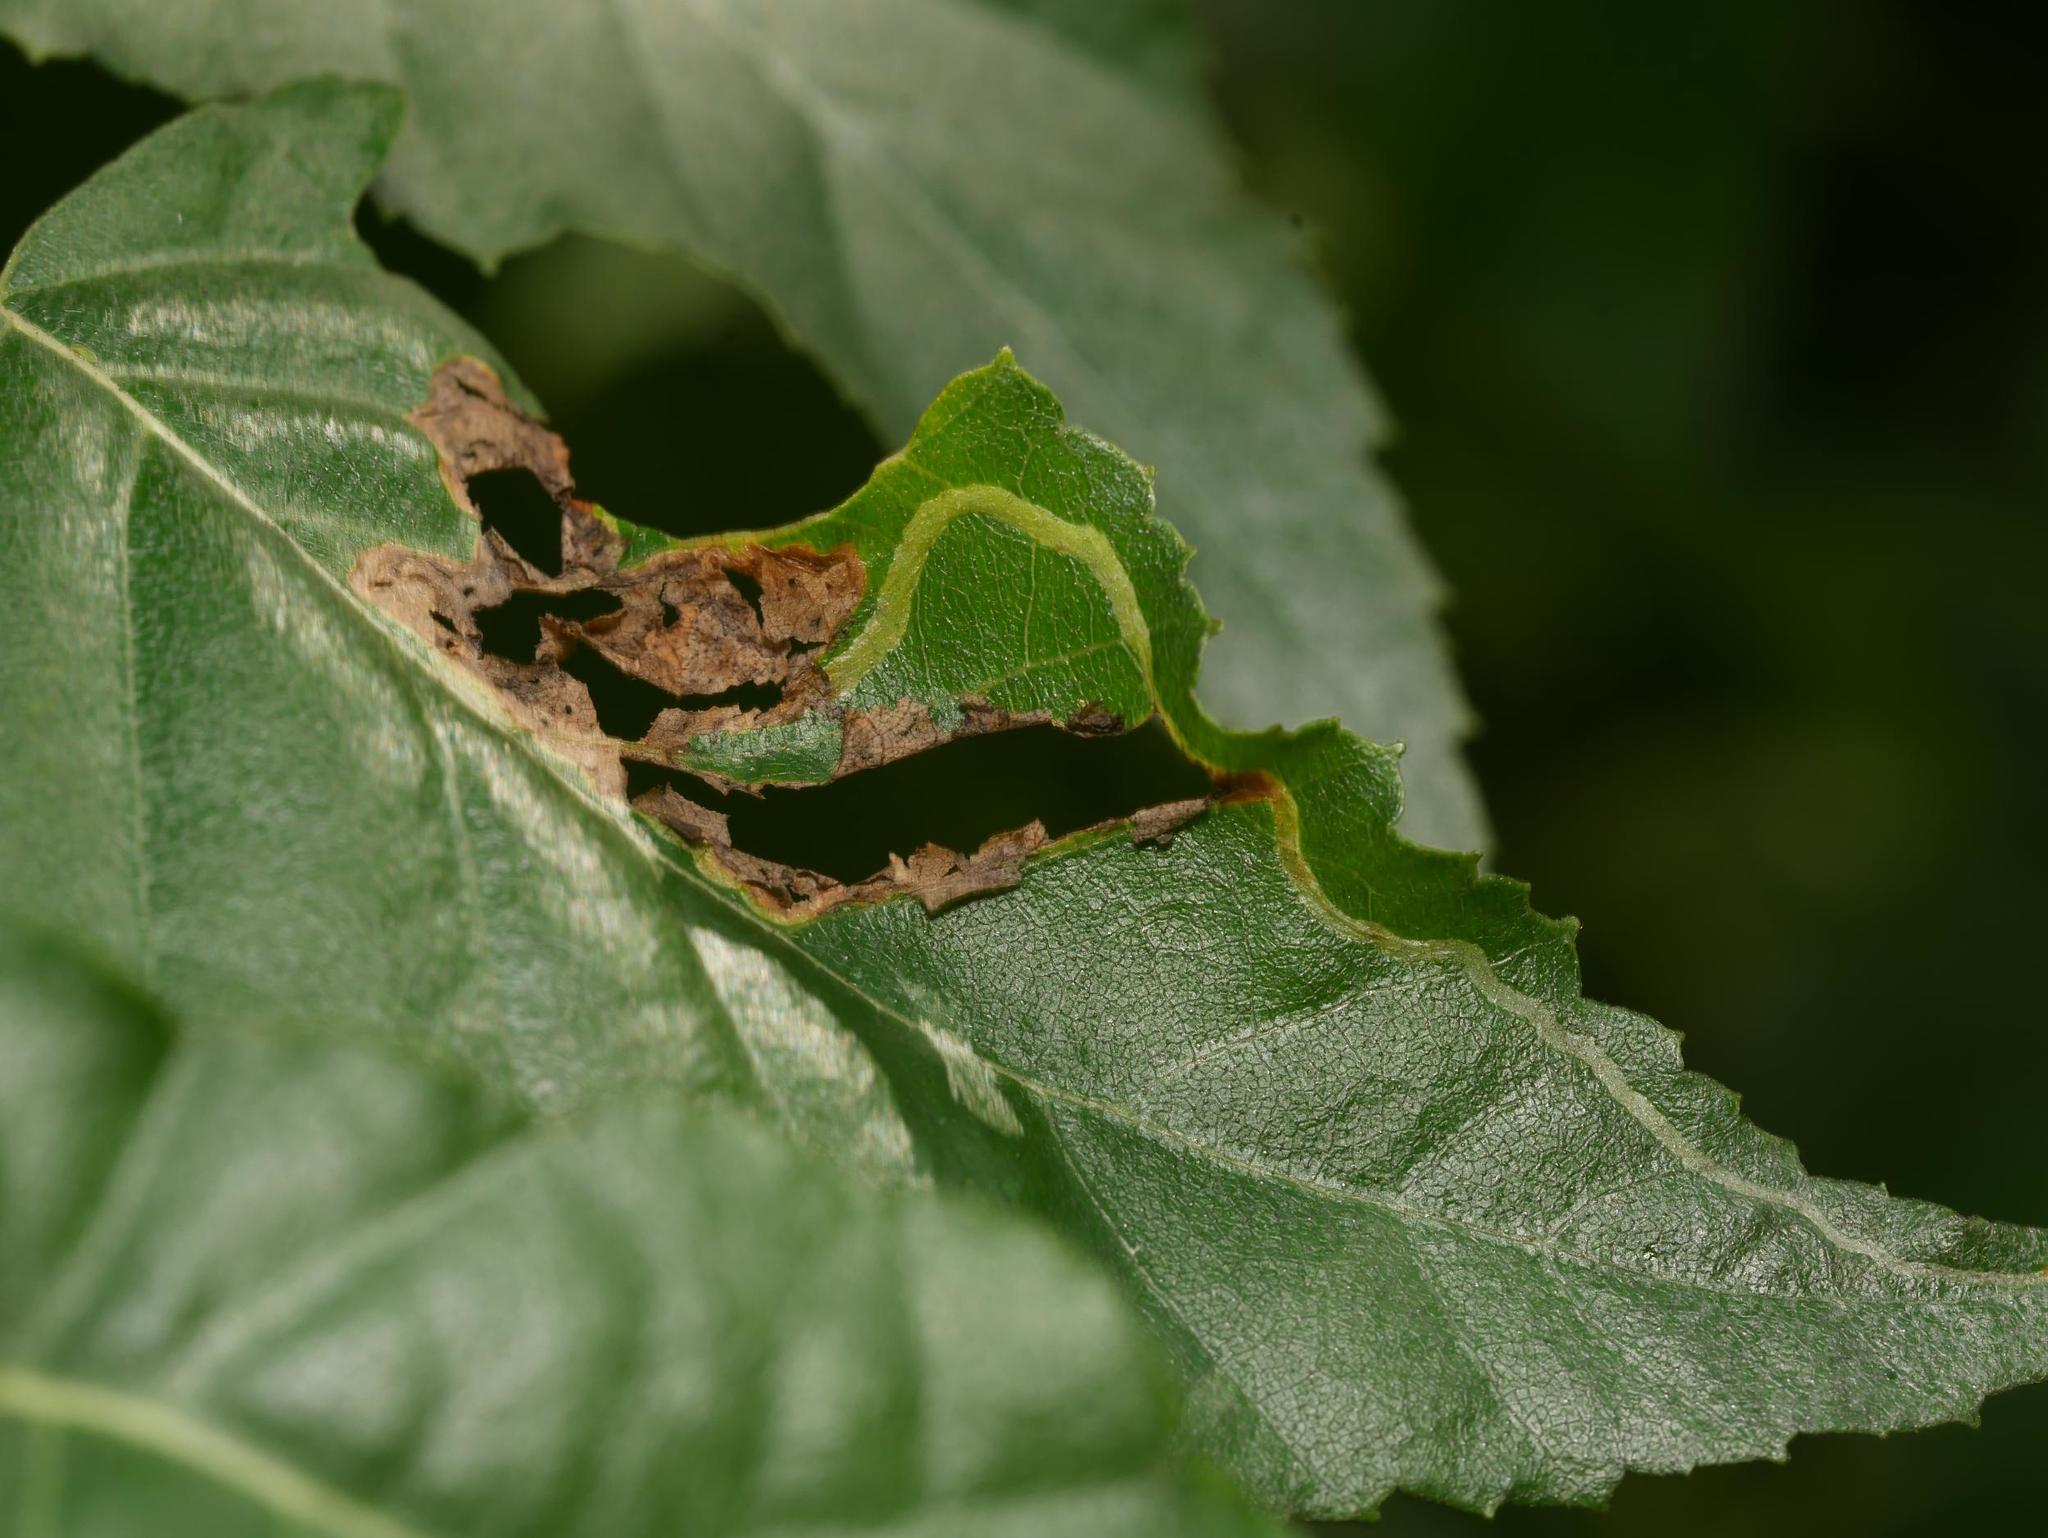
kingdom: Animalia
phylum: Arthropoda
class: Insecta
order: Diptera
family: Agromyzidae
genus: Agromyza
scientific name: Agromyza alnibetulae
